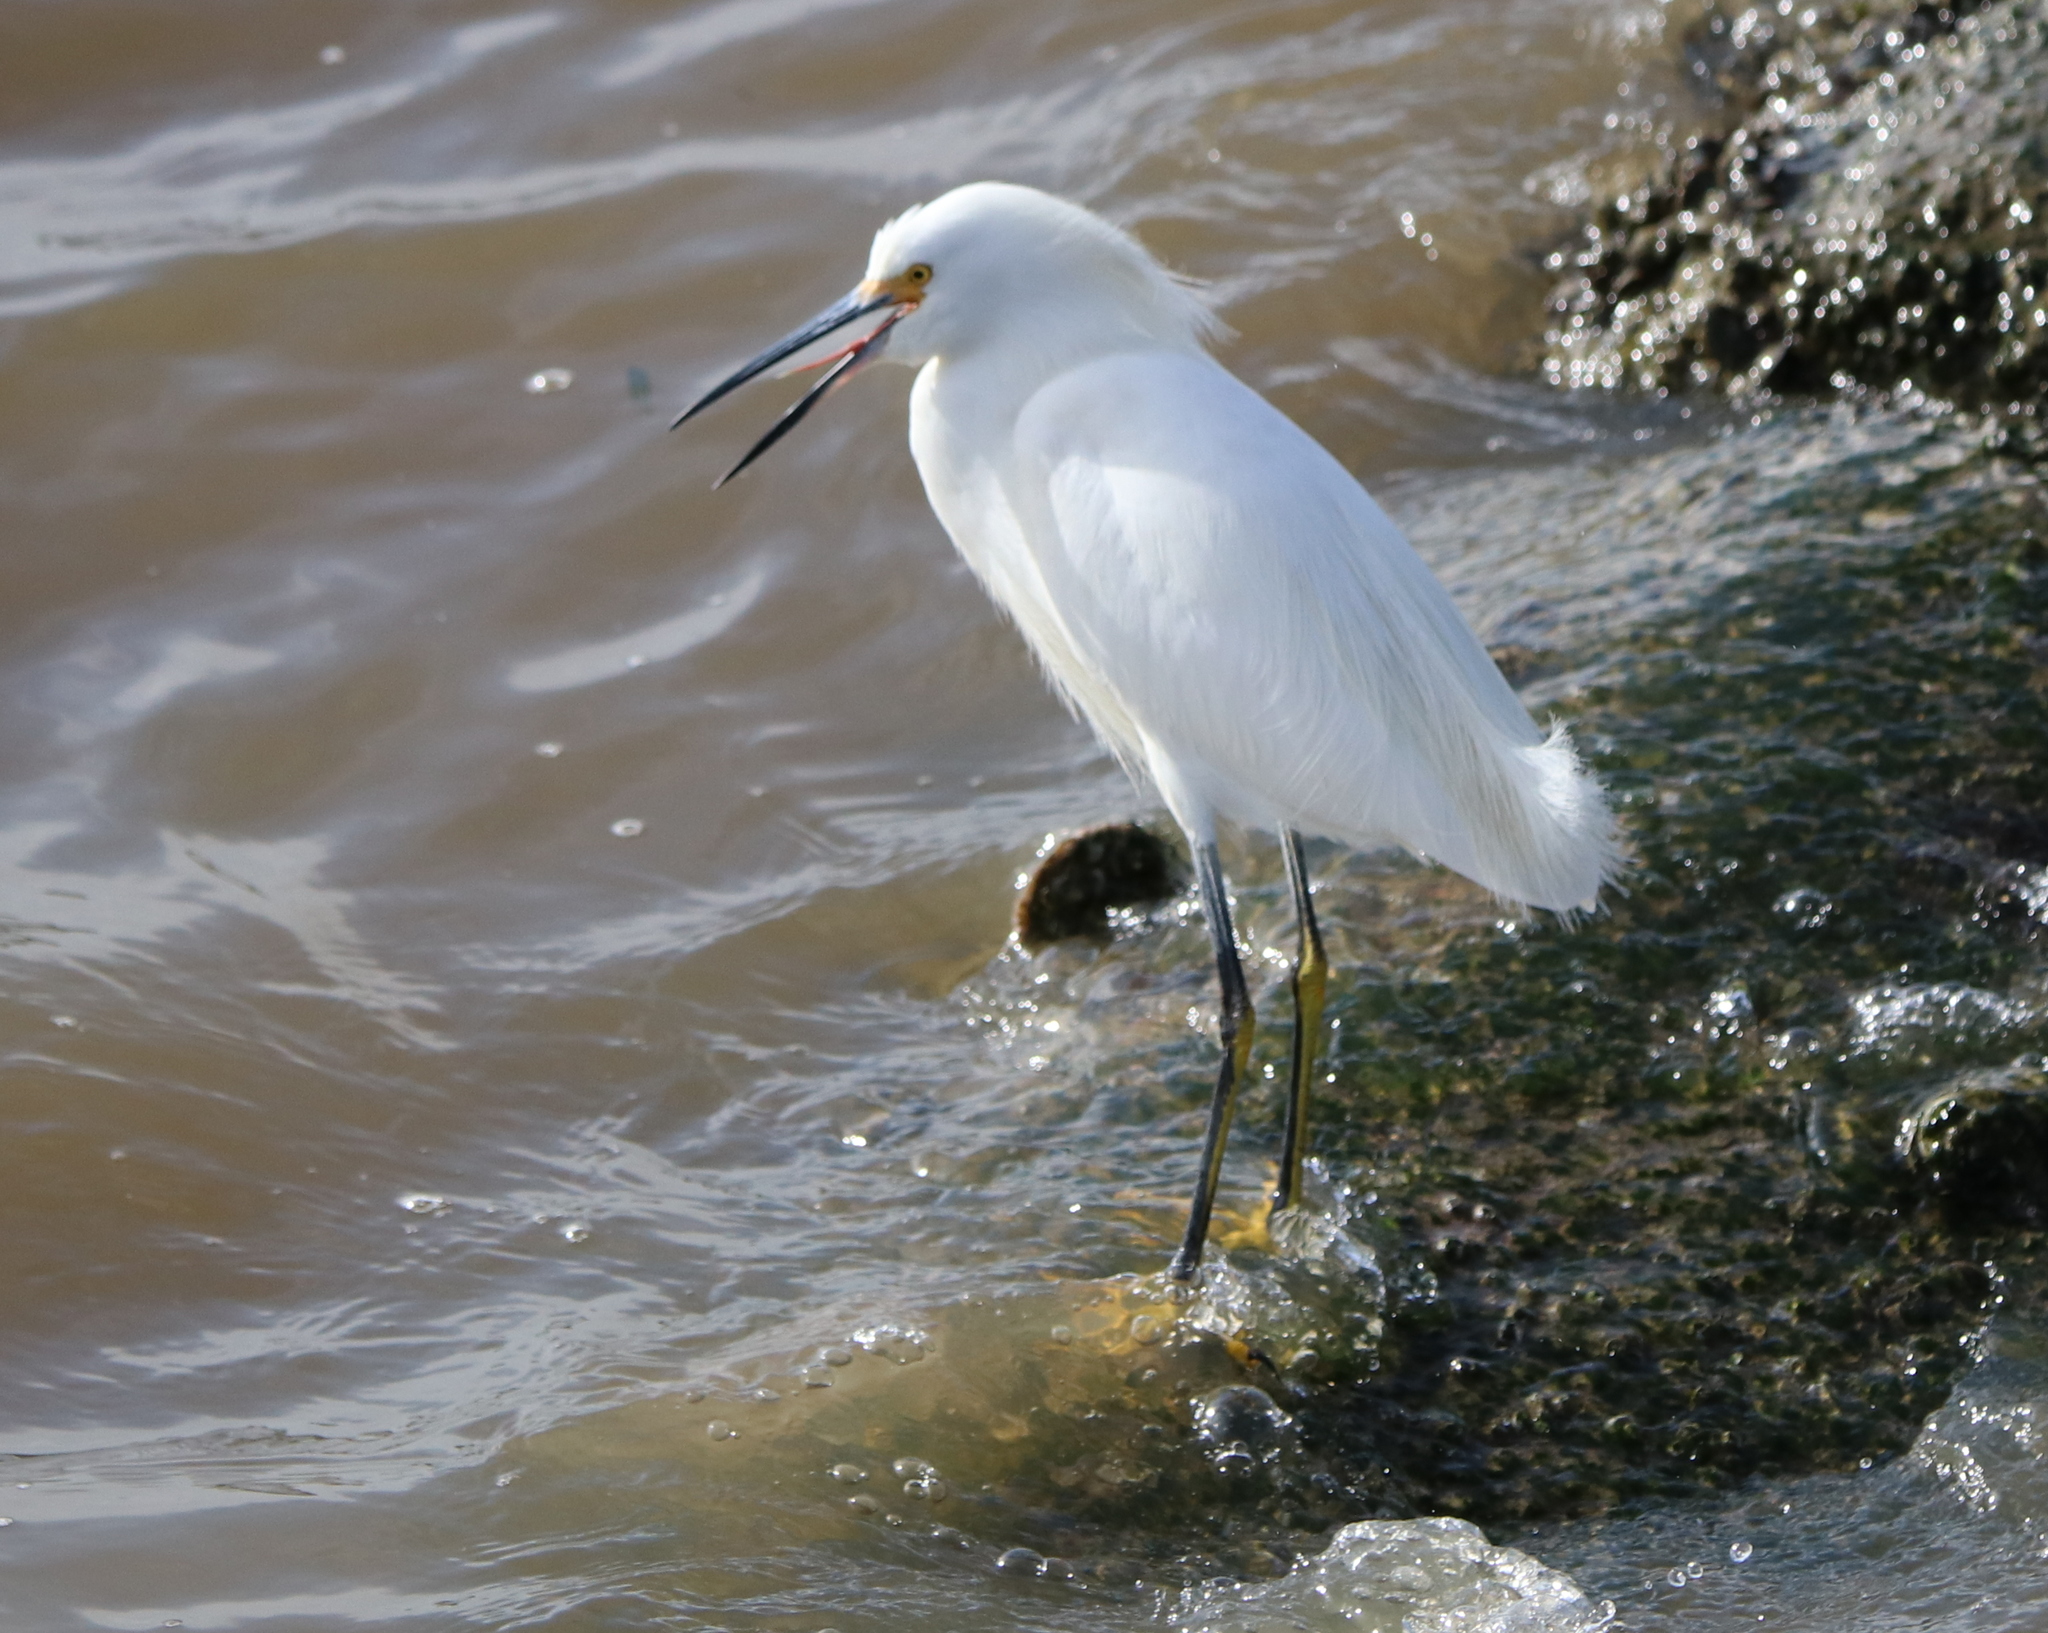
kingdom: Animalia
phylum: Chordata
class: Aves
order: Pelecaniformes
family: Ardeidae
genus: Egretta
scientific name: Egretta thula
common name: Snowy egret
